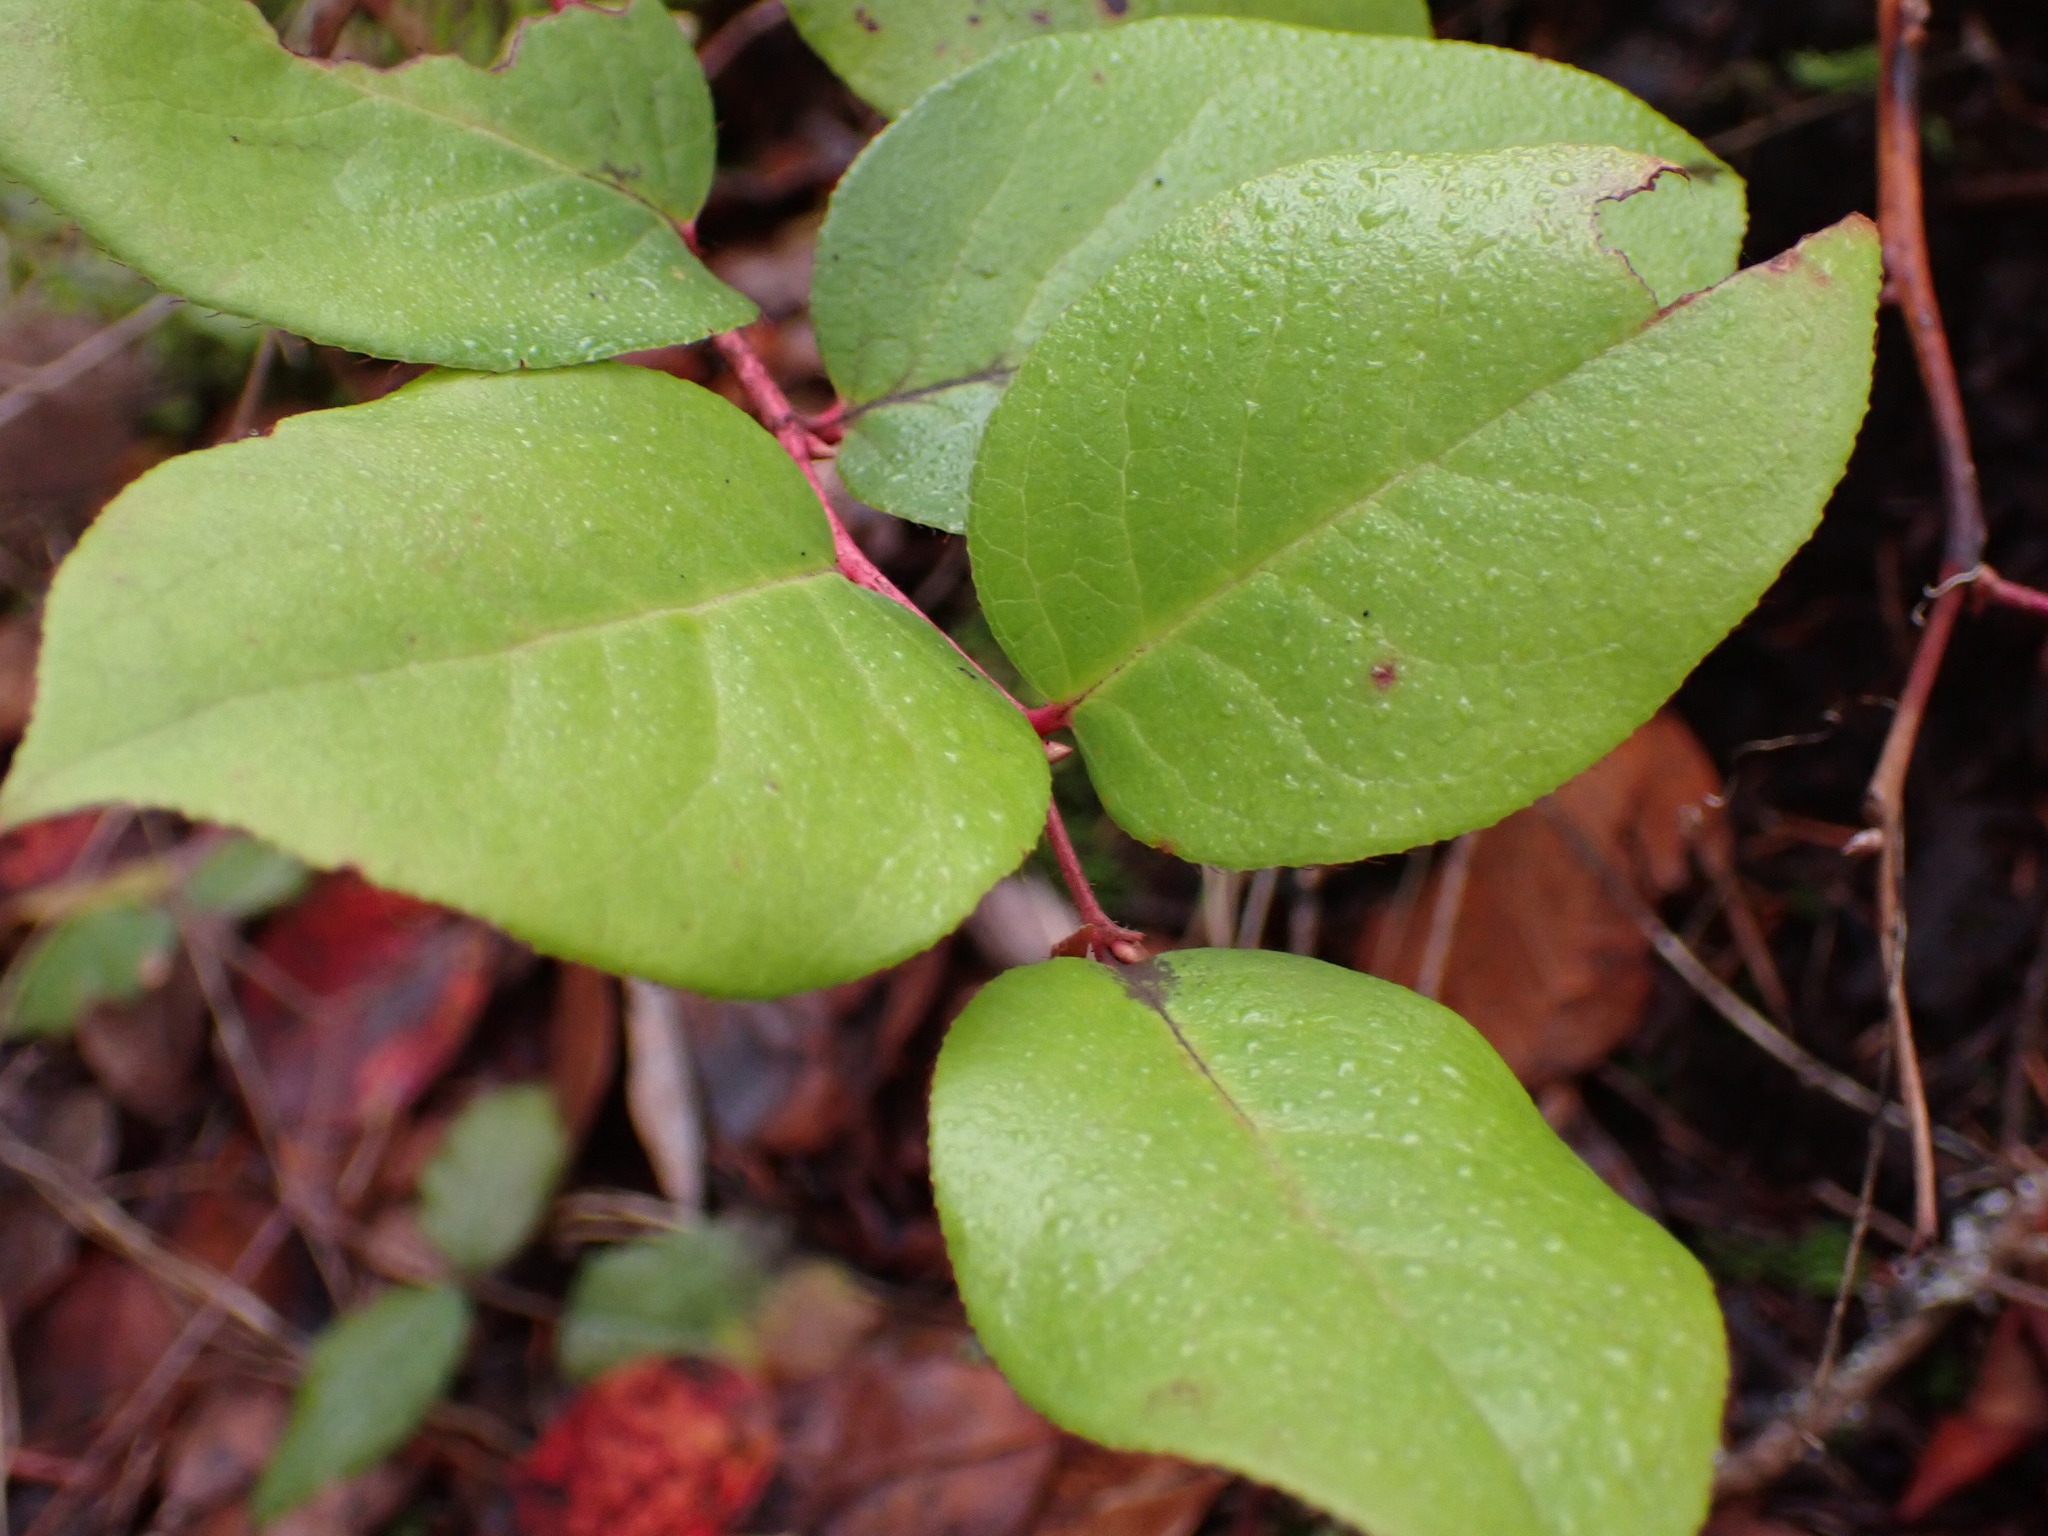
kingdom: Plantae
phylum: Tracheophyta
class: Magnoliopsida
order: Ericales
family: Ericaceae
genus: Gaultheria
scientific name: Gaultheria shallon
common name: Shallon
